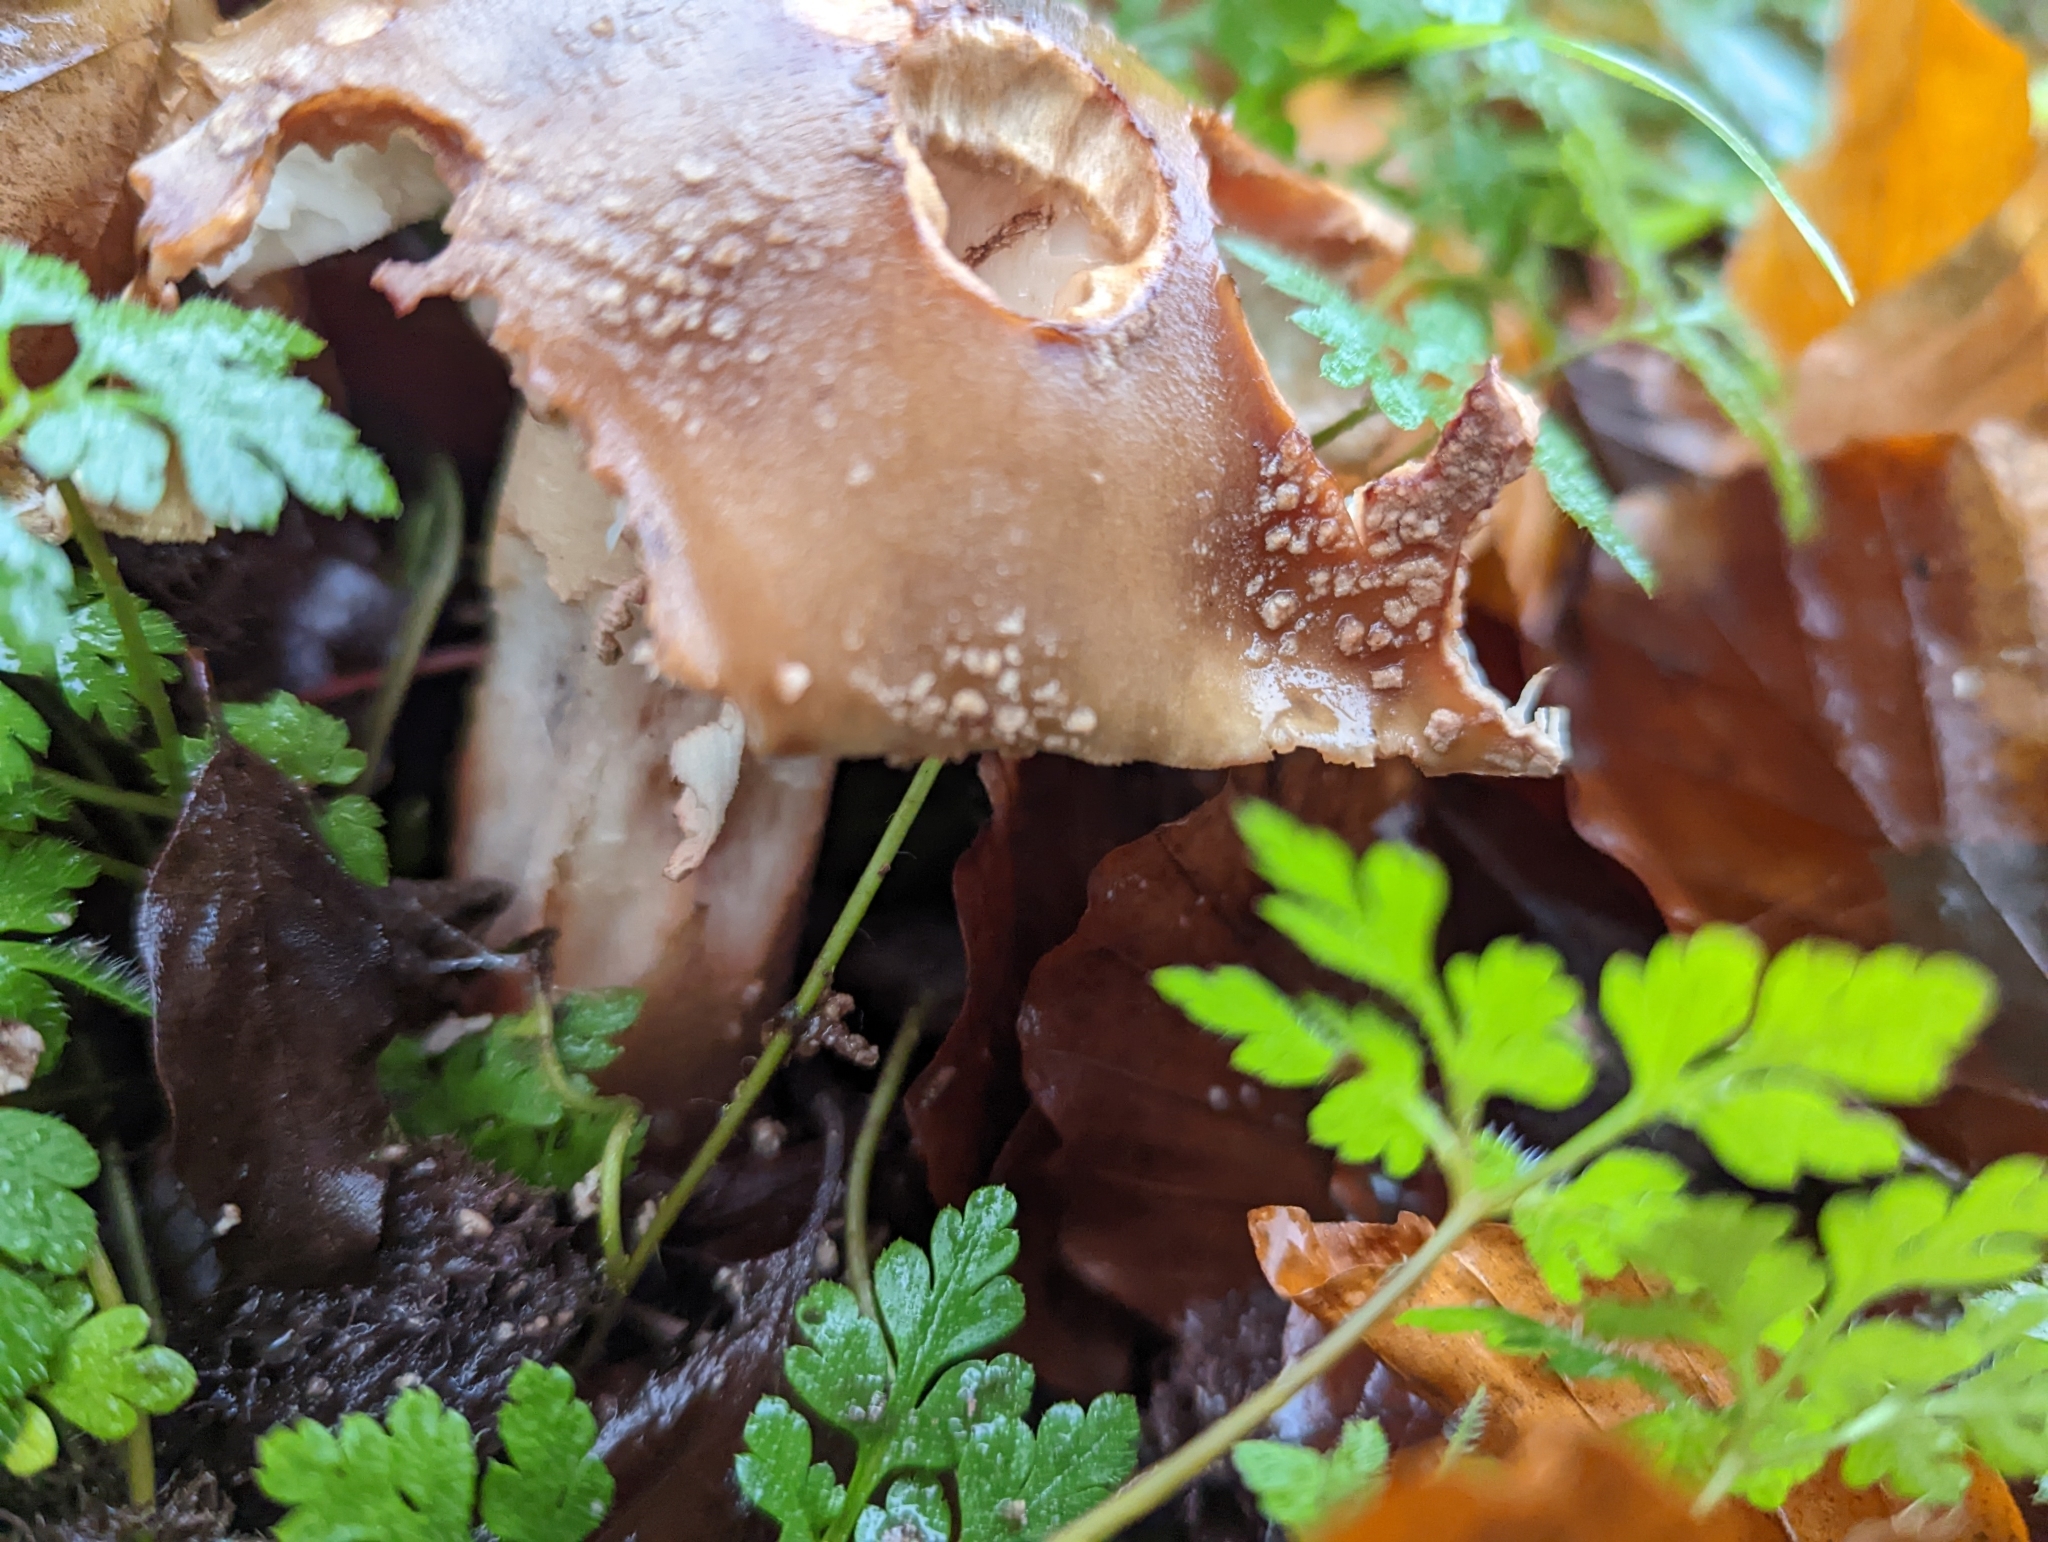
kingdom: Fungi
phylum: Basidiomycota
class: Agaricomycetes
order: Agaricales
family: Amanitaceae
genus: Amanita
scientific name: Amanita rubescens
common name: Blusher
